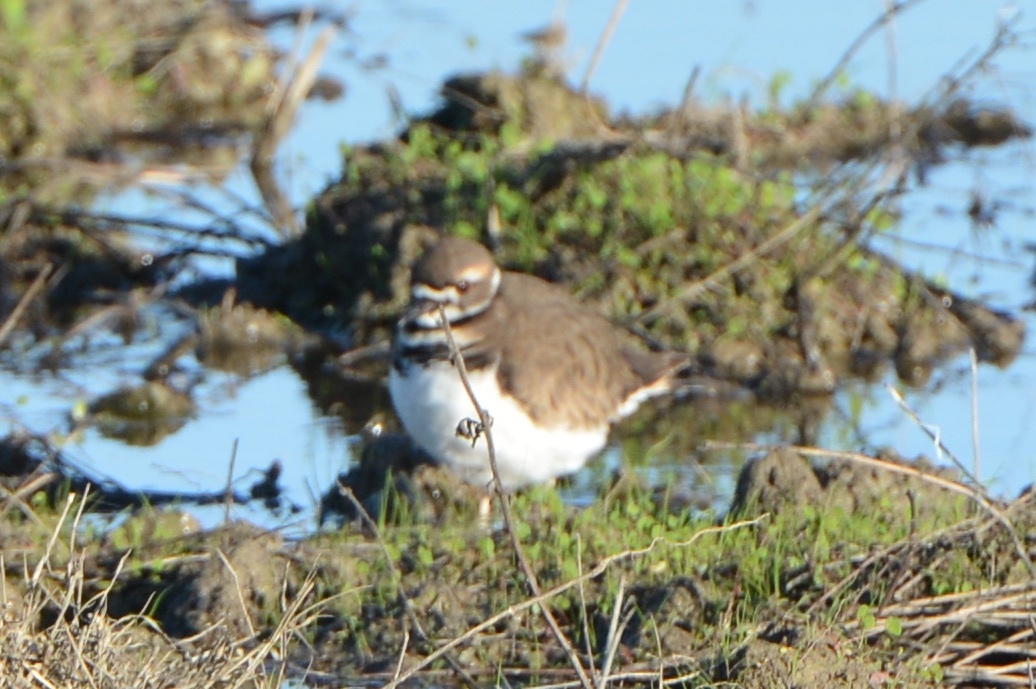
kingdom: Animalia
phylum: Chordata
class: Aves
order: Charadriiformes
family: Charadriidae
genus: Charadrius
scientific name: Charadrius vociferus
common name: Killdeer
